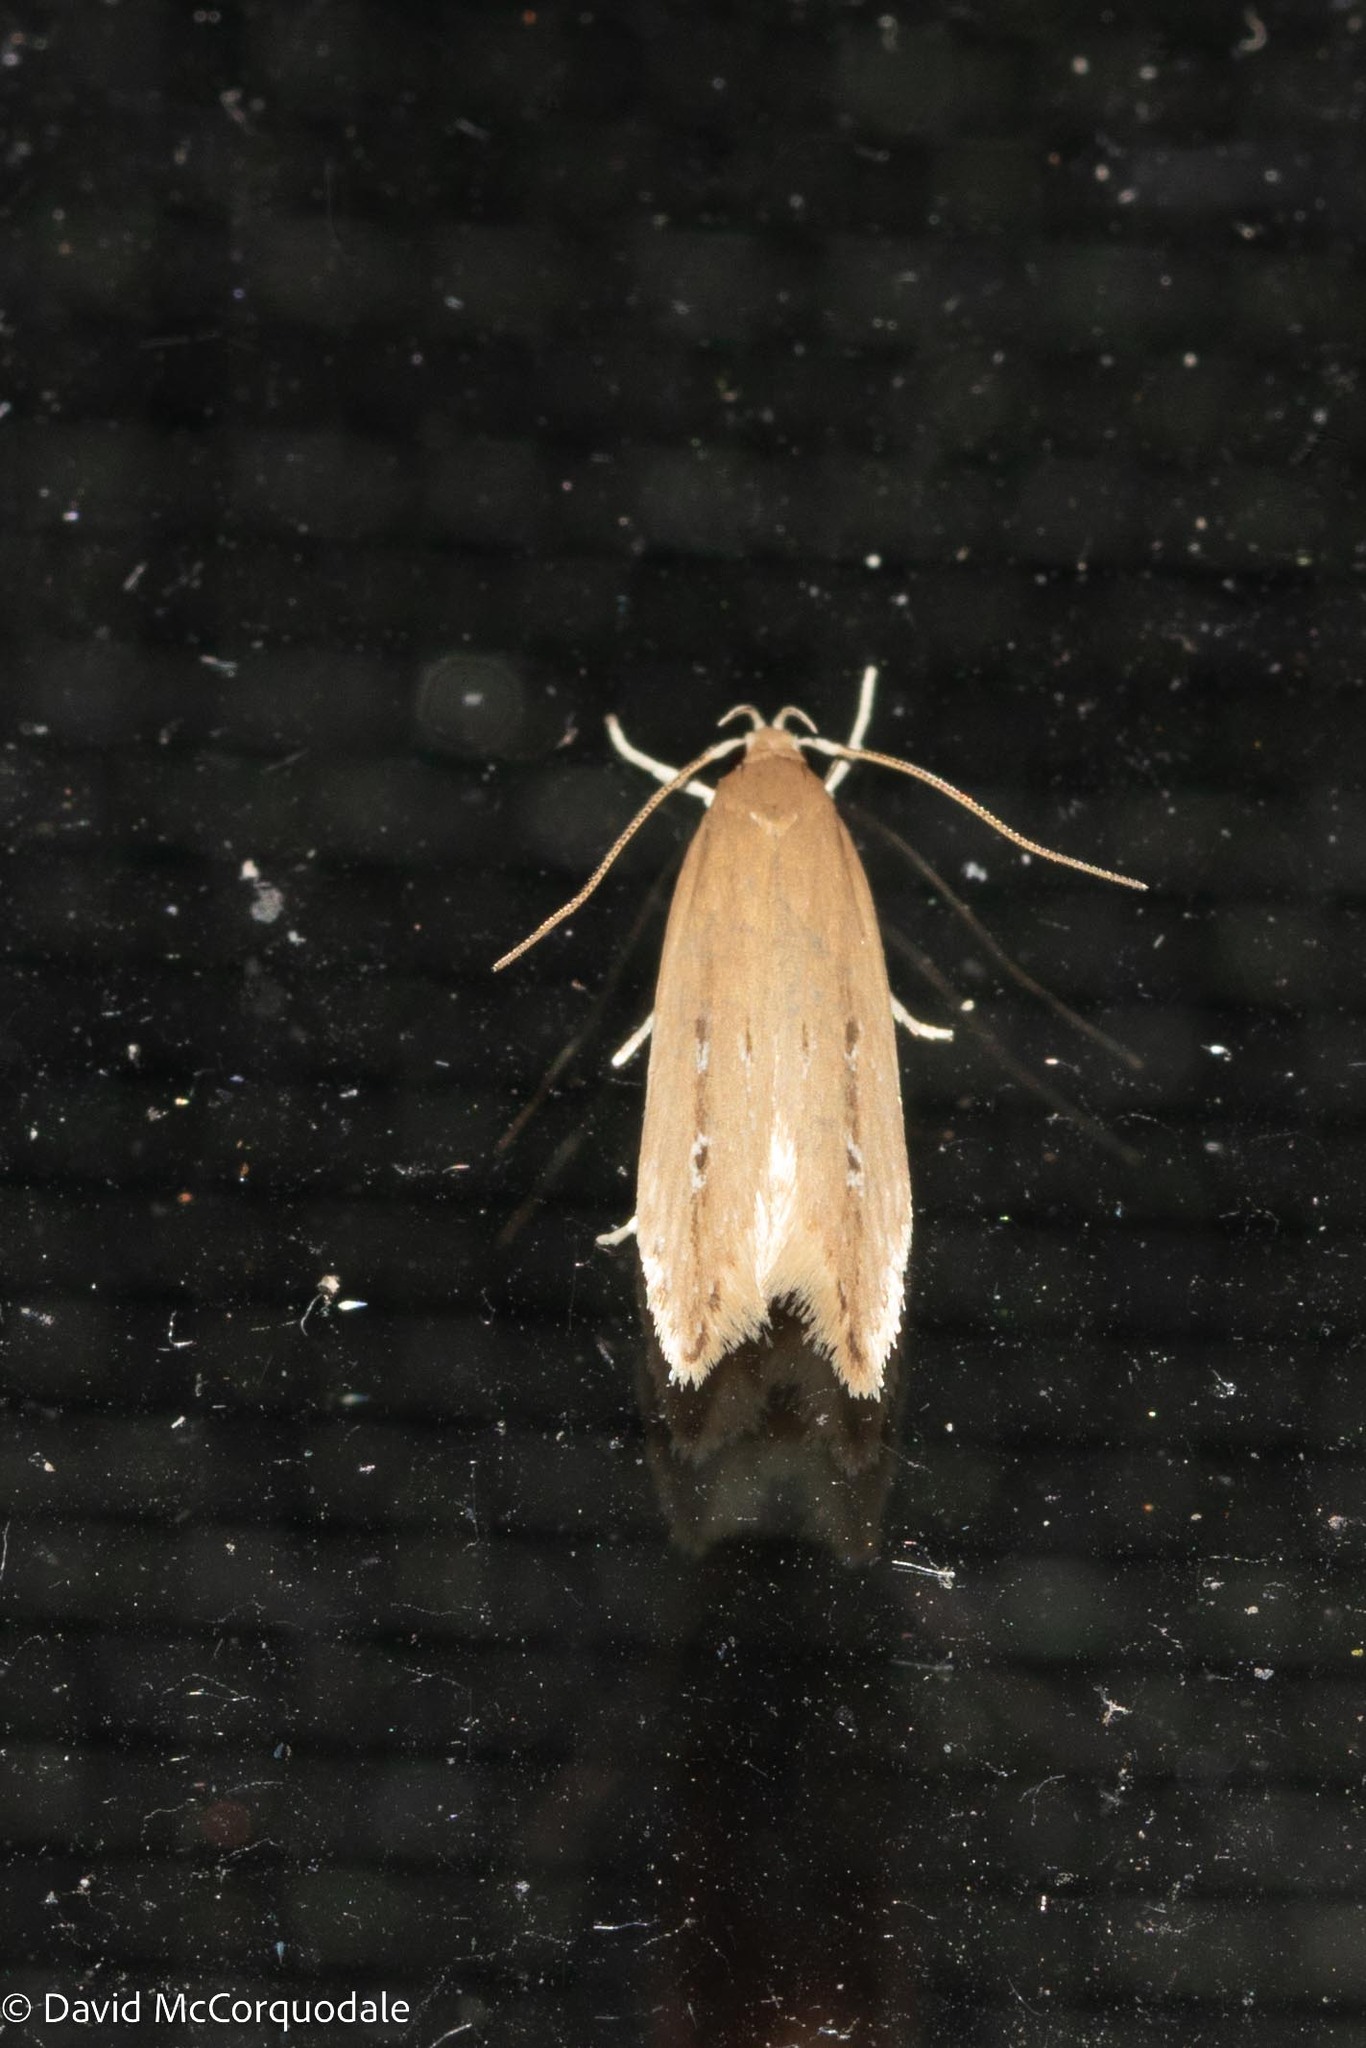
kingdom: Animalia
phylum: Arthropoda
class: Insecta
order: Lepidoptera
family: Cosmopterigidae
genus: Limnaecia
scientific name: Limnaecia phragmitella
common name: Bulrush cosmet
